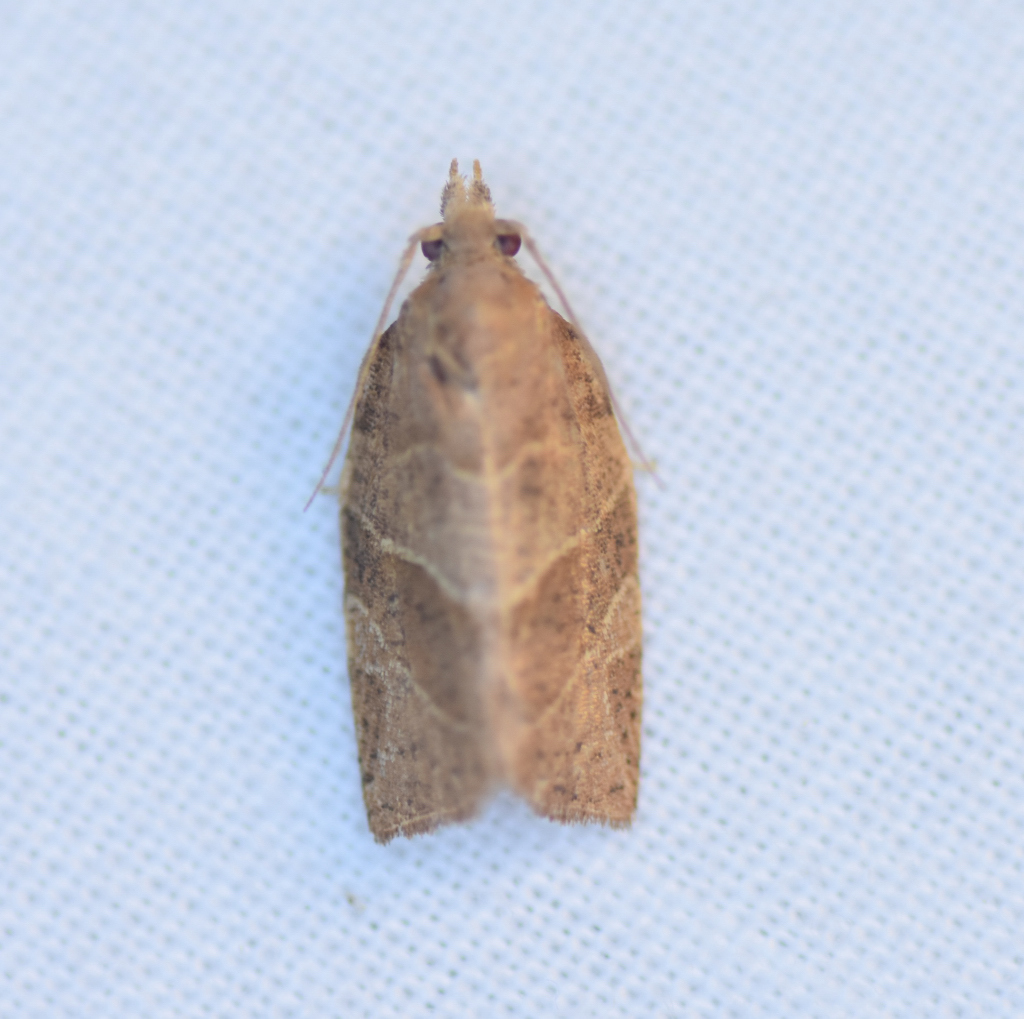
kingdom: Animalia
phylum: Arthropoda
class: Insecta
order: Lepidoptera
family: Tortricidae
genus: Pandemis
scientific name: Pandemis limitata
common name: Three-lined leafroller moth
